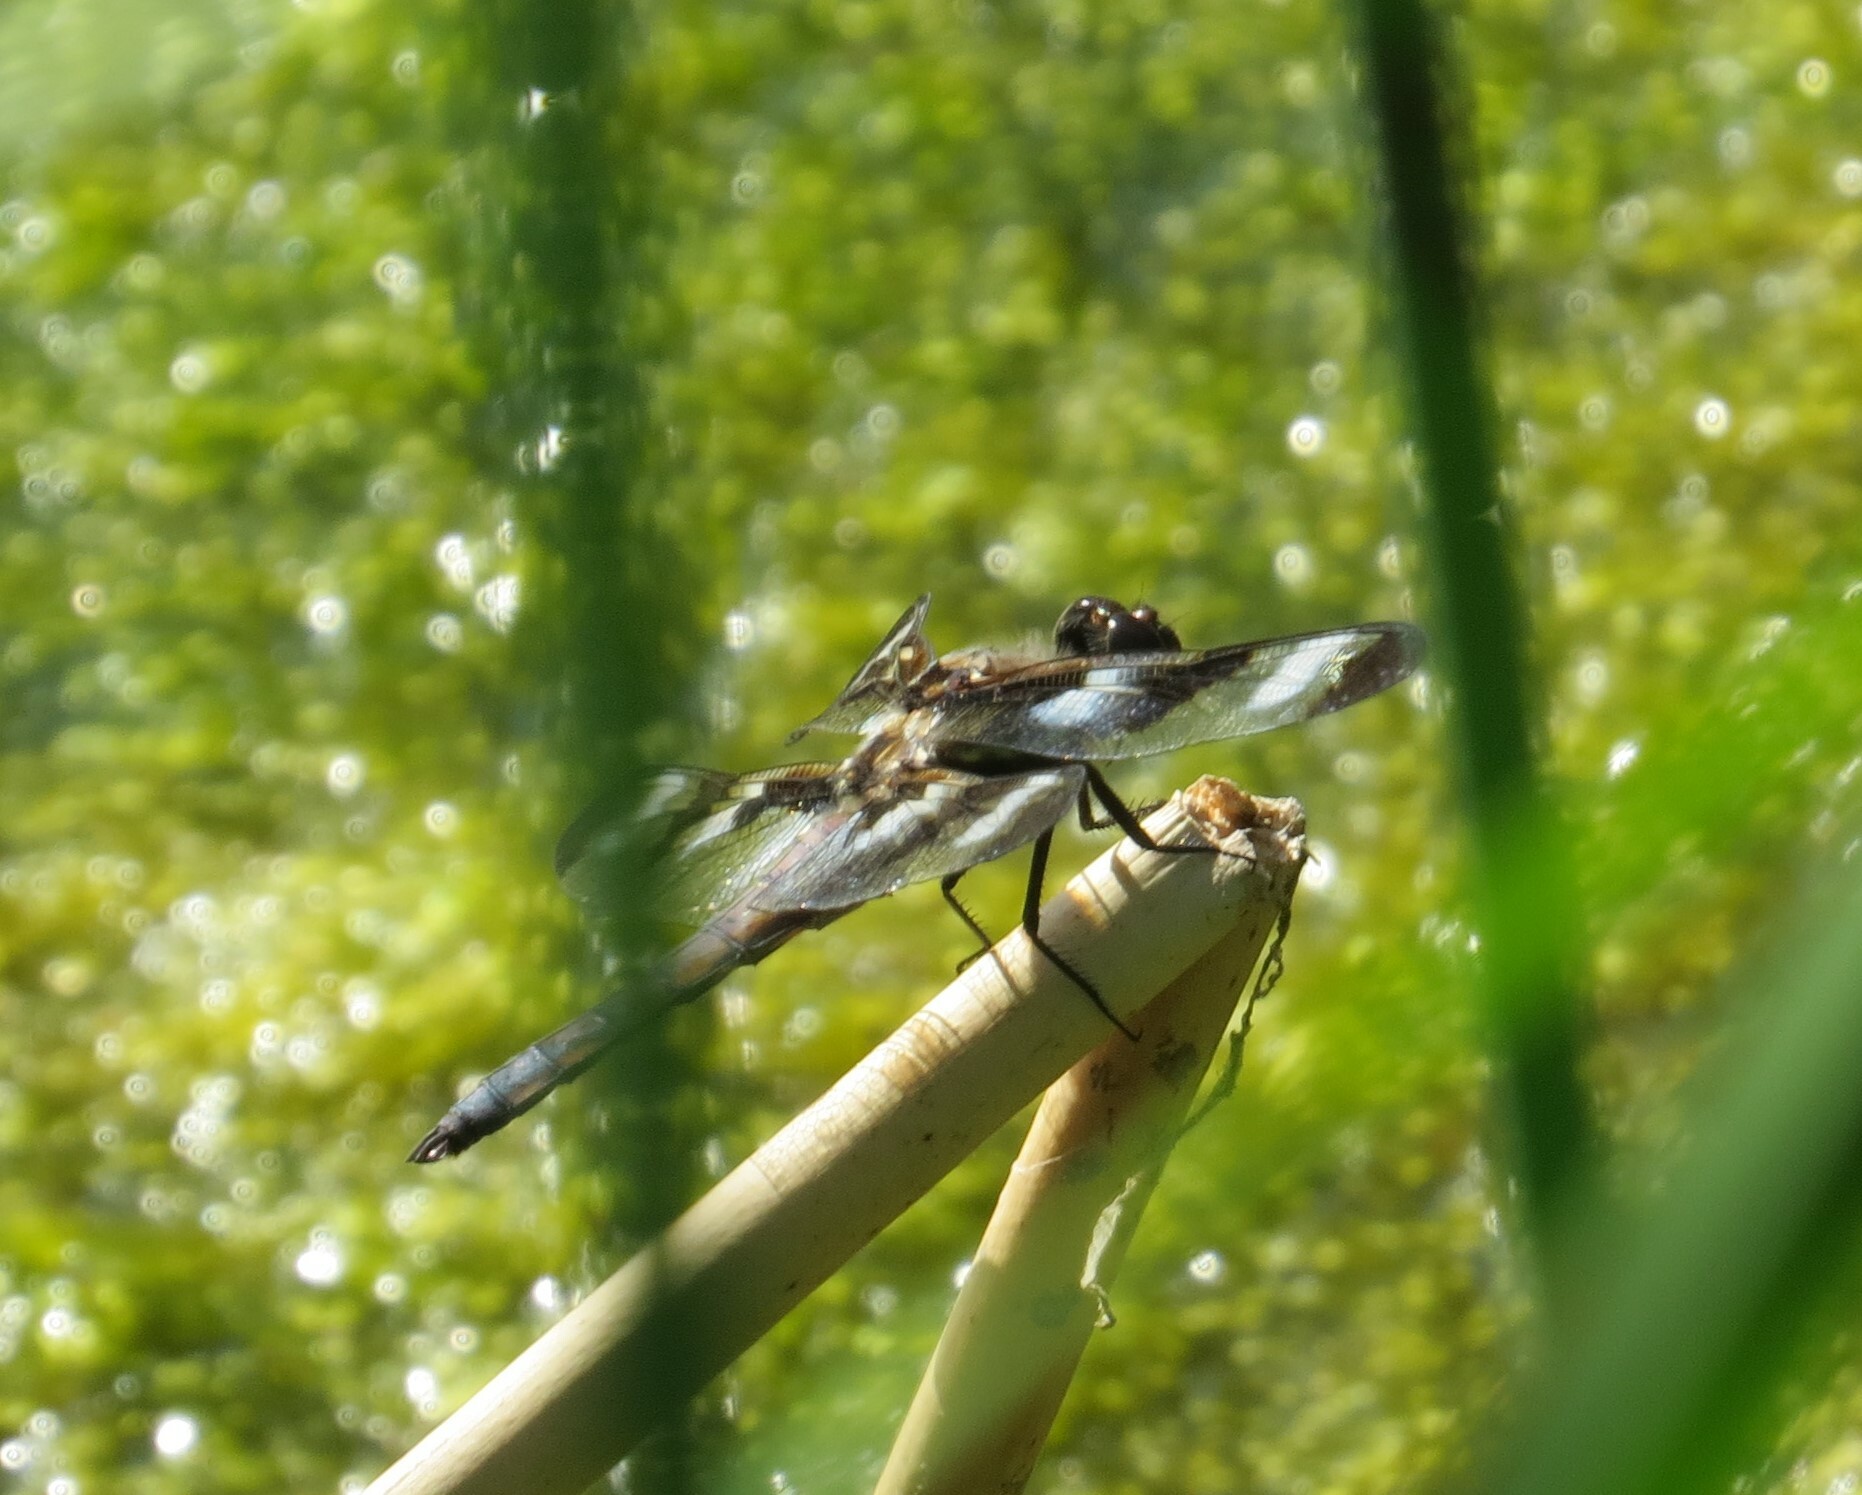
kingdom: Animalia
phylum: Arthropoda
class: Insecta
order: Odonata
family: Libellulidae
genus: Libellula
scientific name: Libellula pulchella
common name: Twelve-spotted skimmer
